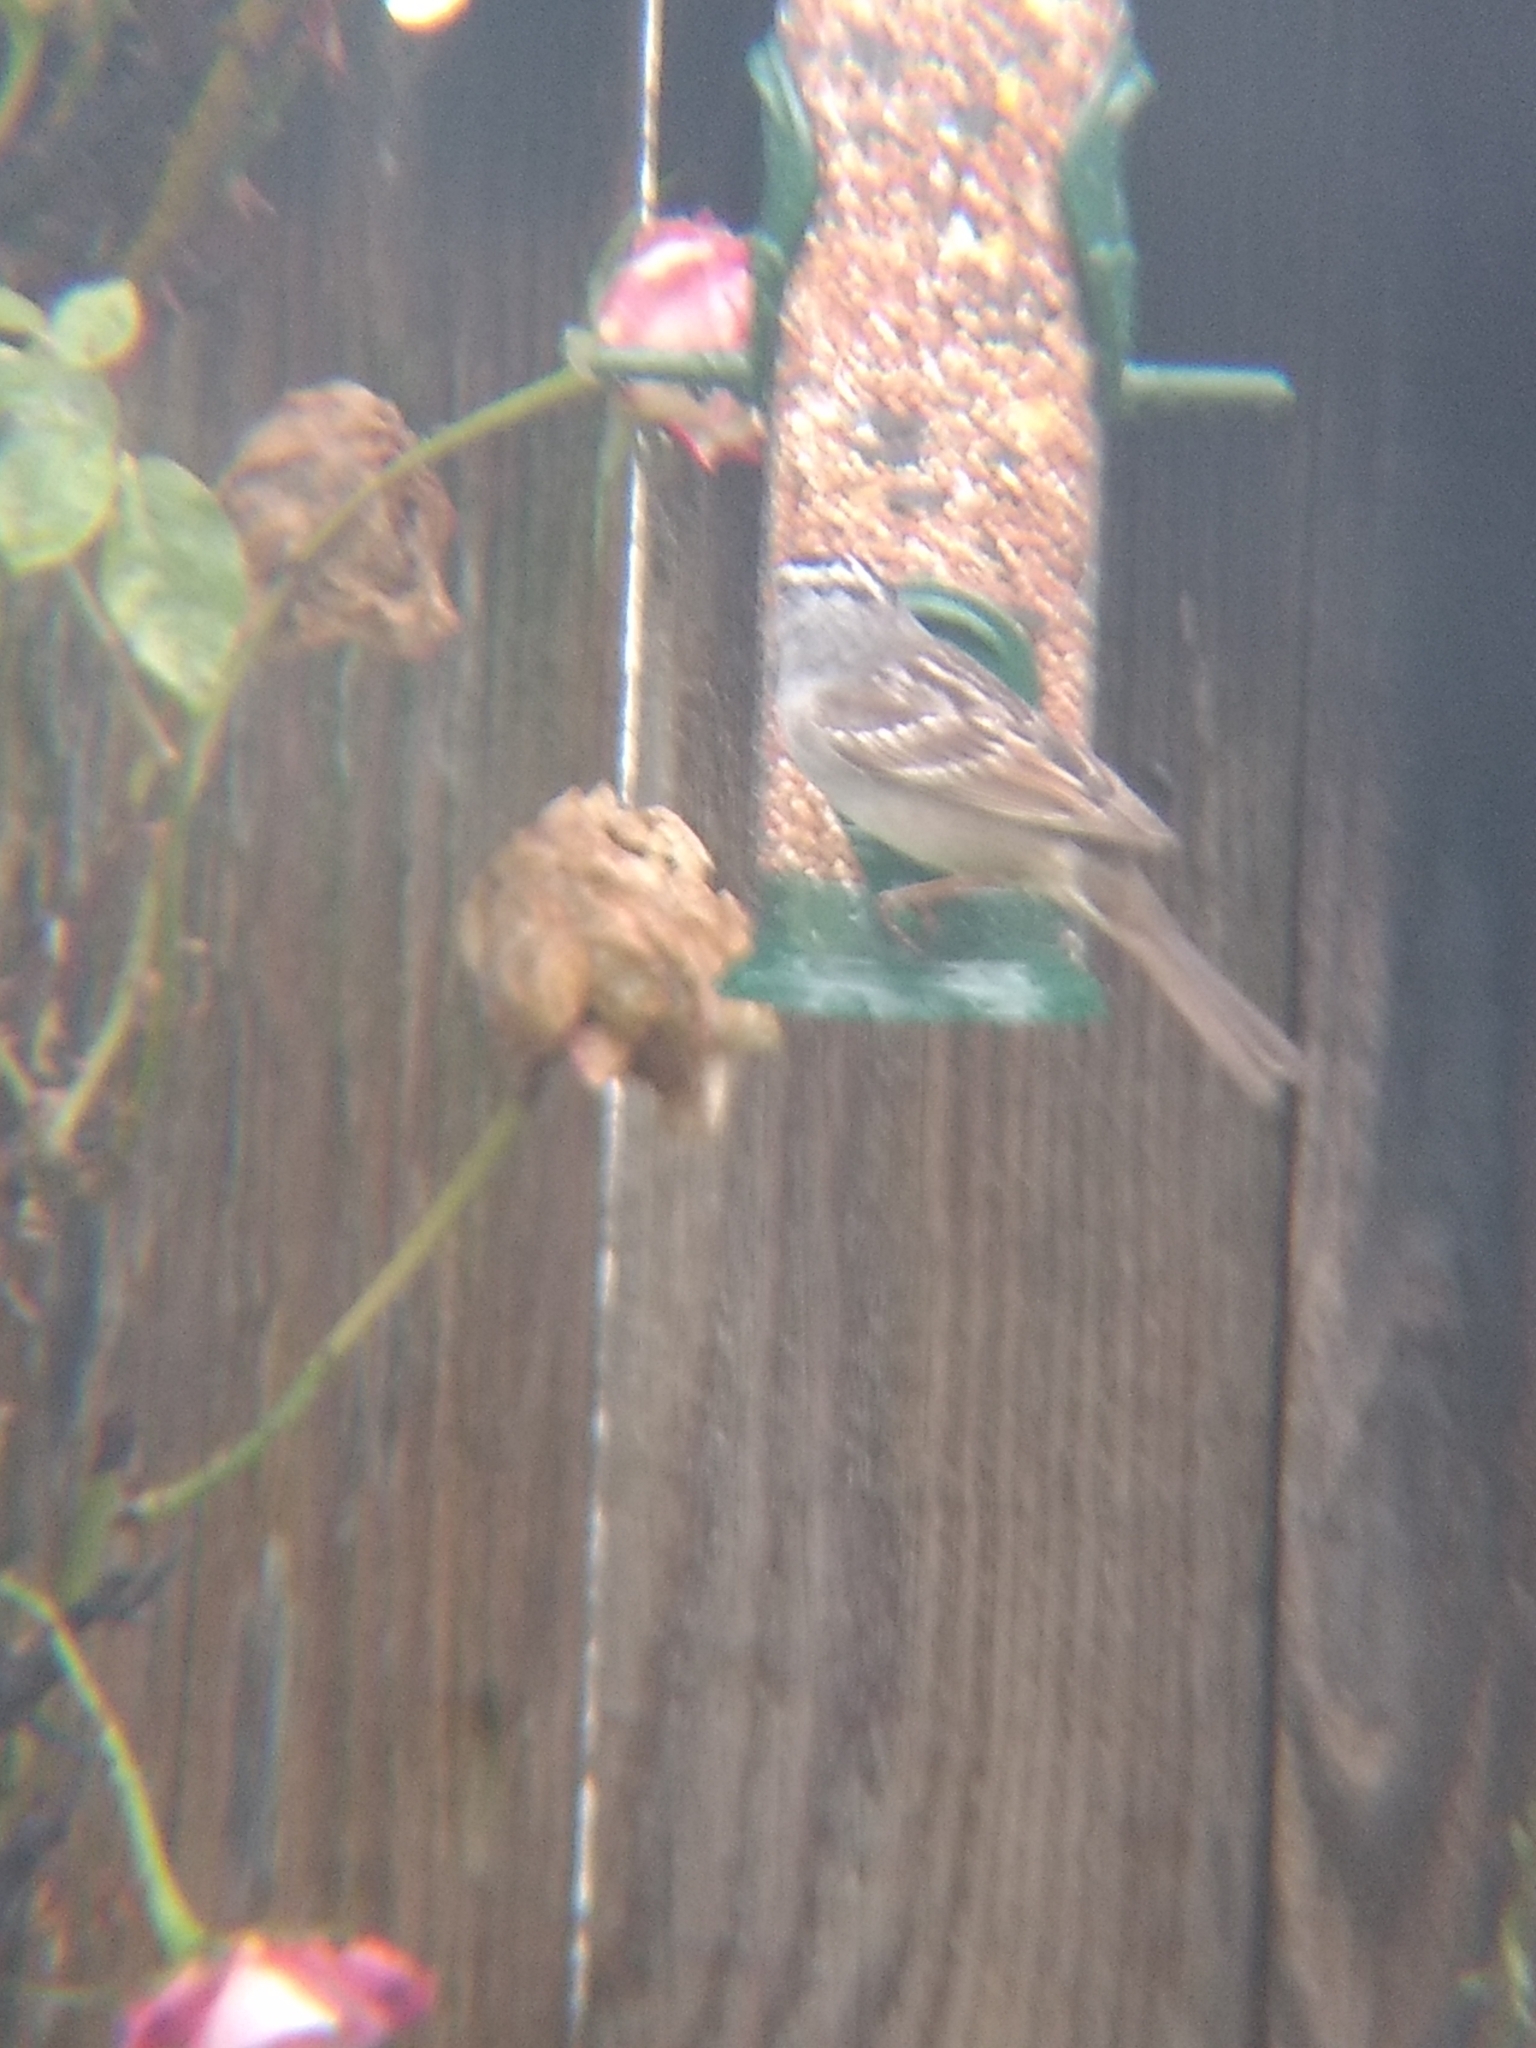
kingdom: Animalia
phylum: Chordata
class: Aves
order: Passeriformes
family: Passerellidae
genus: Zonotrichia
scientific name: Zonotrichia leucophrys
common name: White-crowned sparrow
